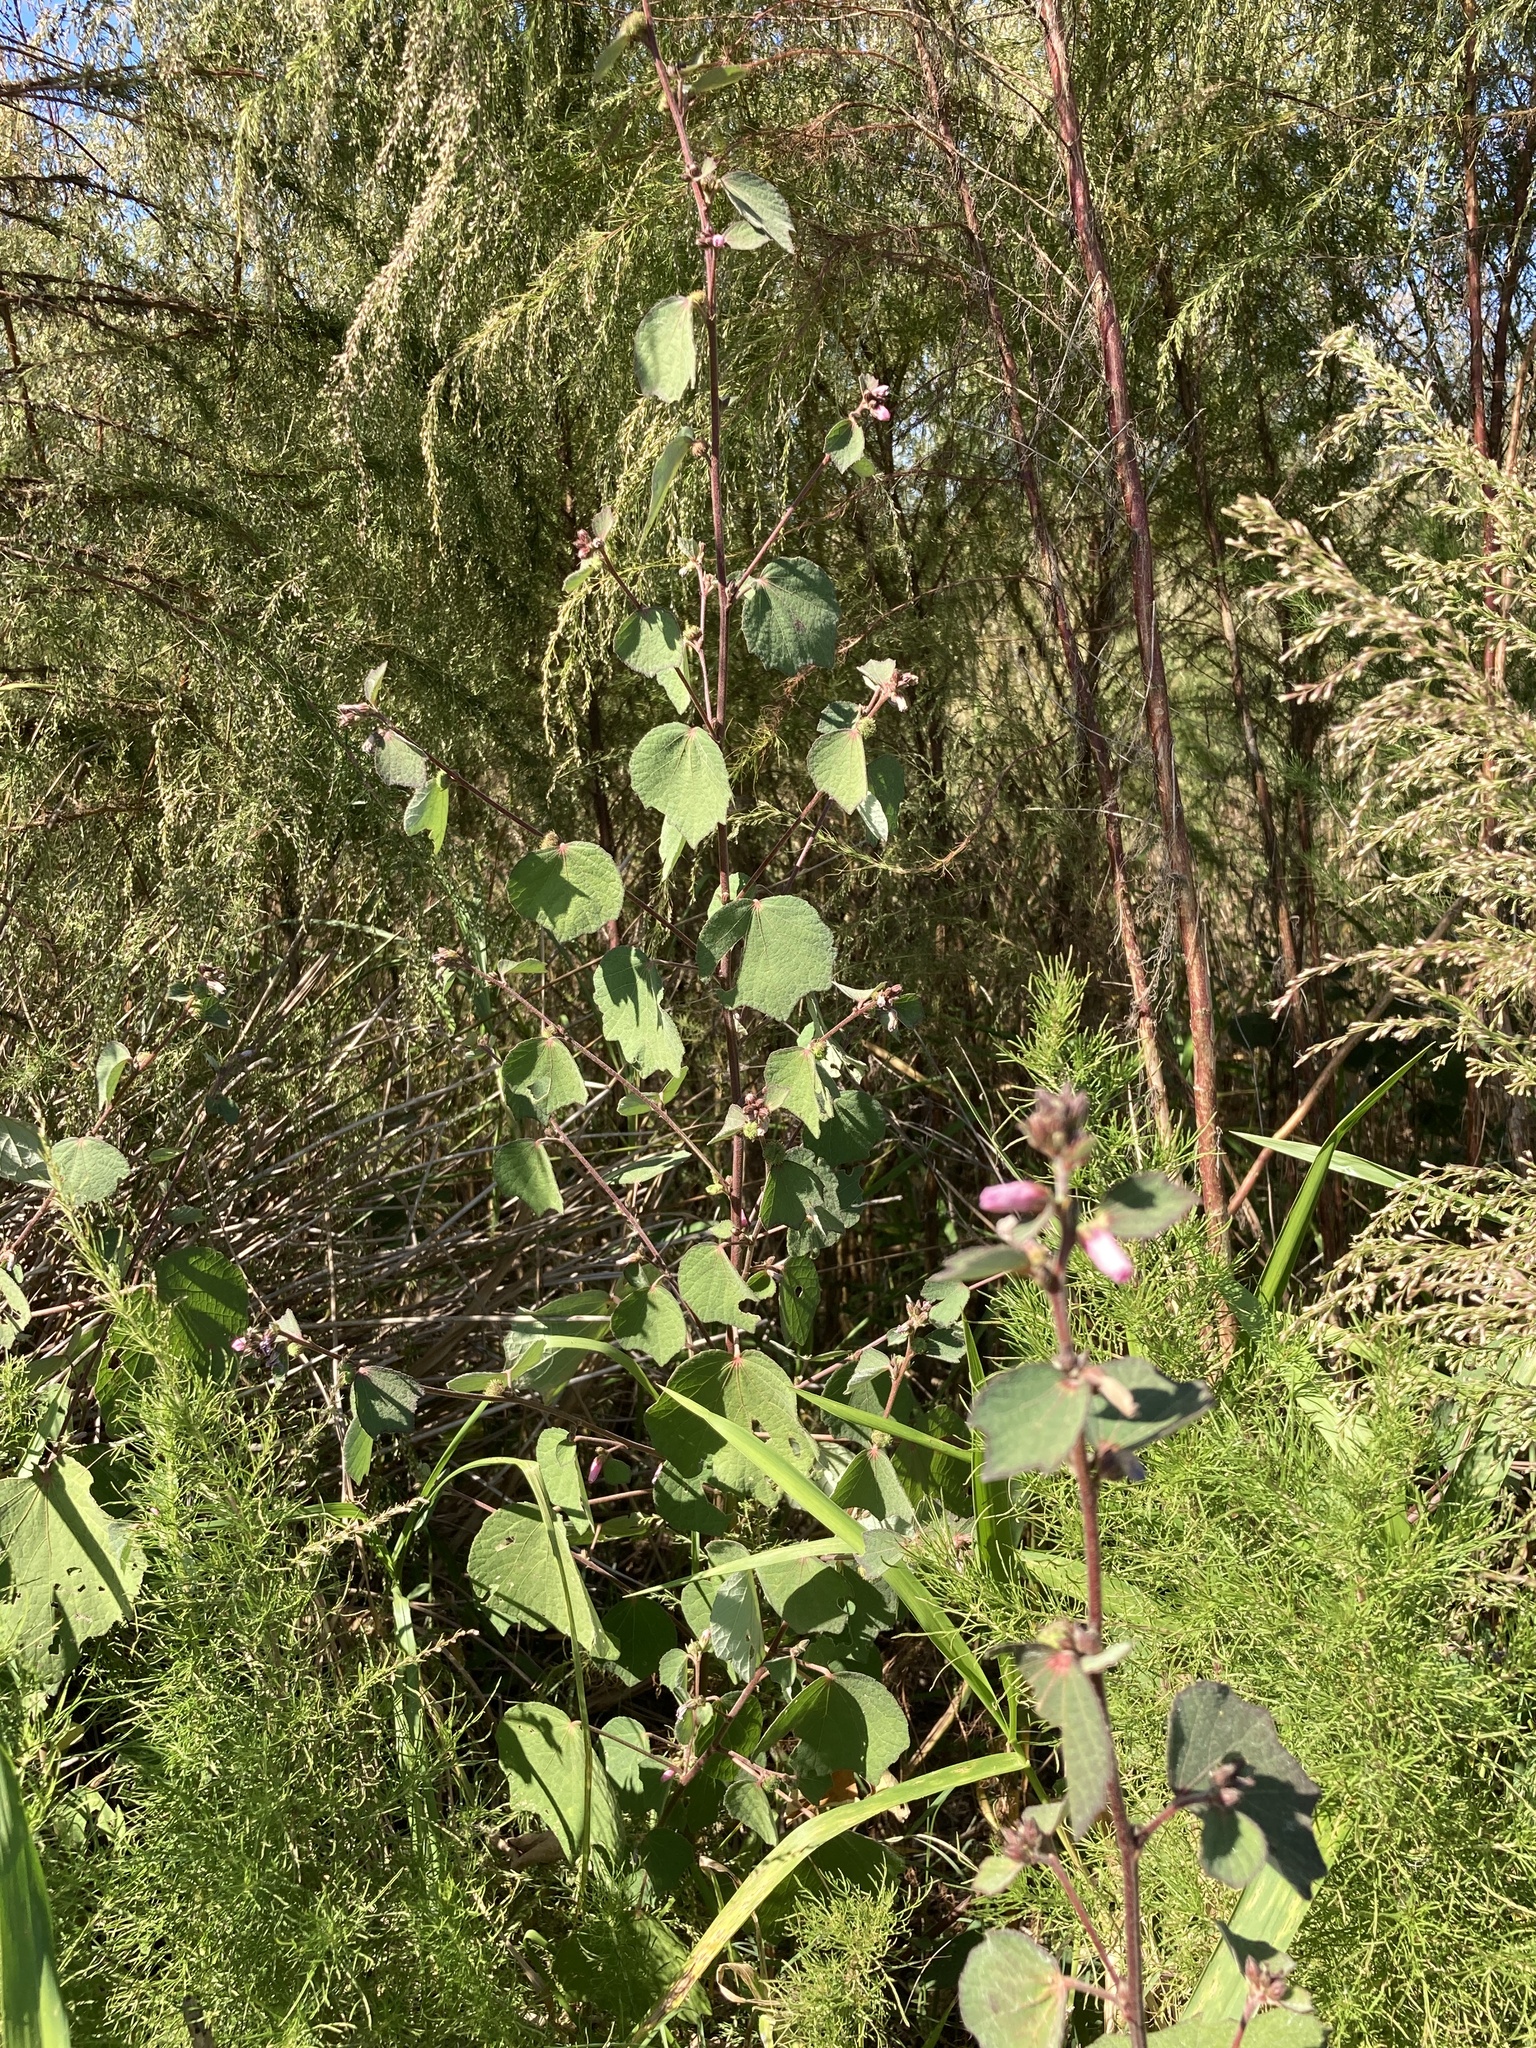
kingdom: Plantae
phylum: Tracheophyta
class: Magnoliopsida
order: Malvales
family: Malvaceae
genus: Urena
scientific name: Urena lobata
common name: Caesarweed
